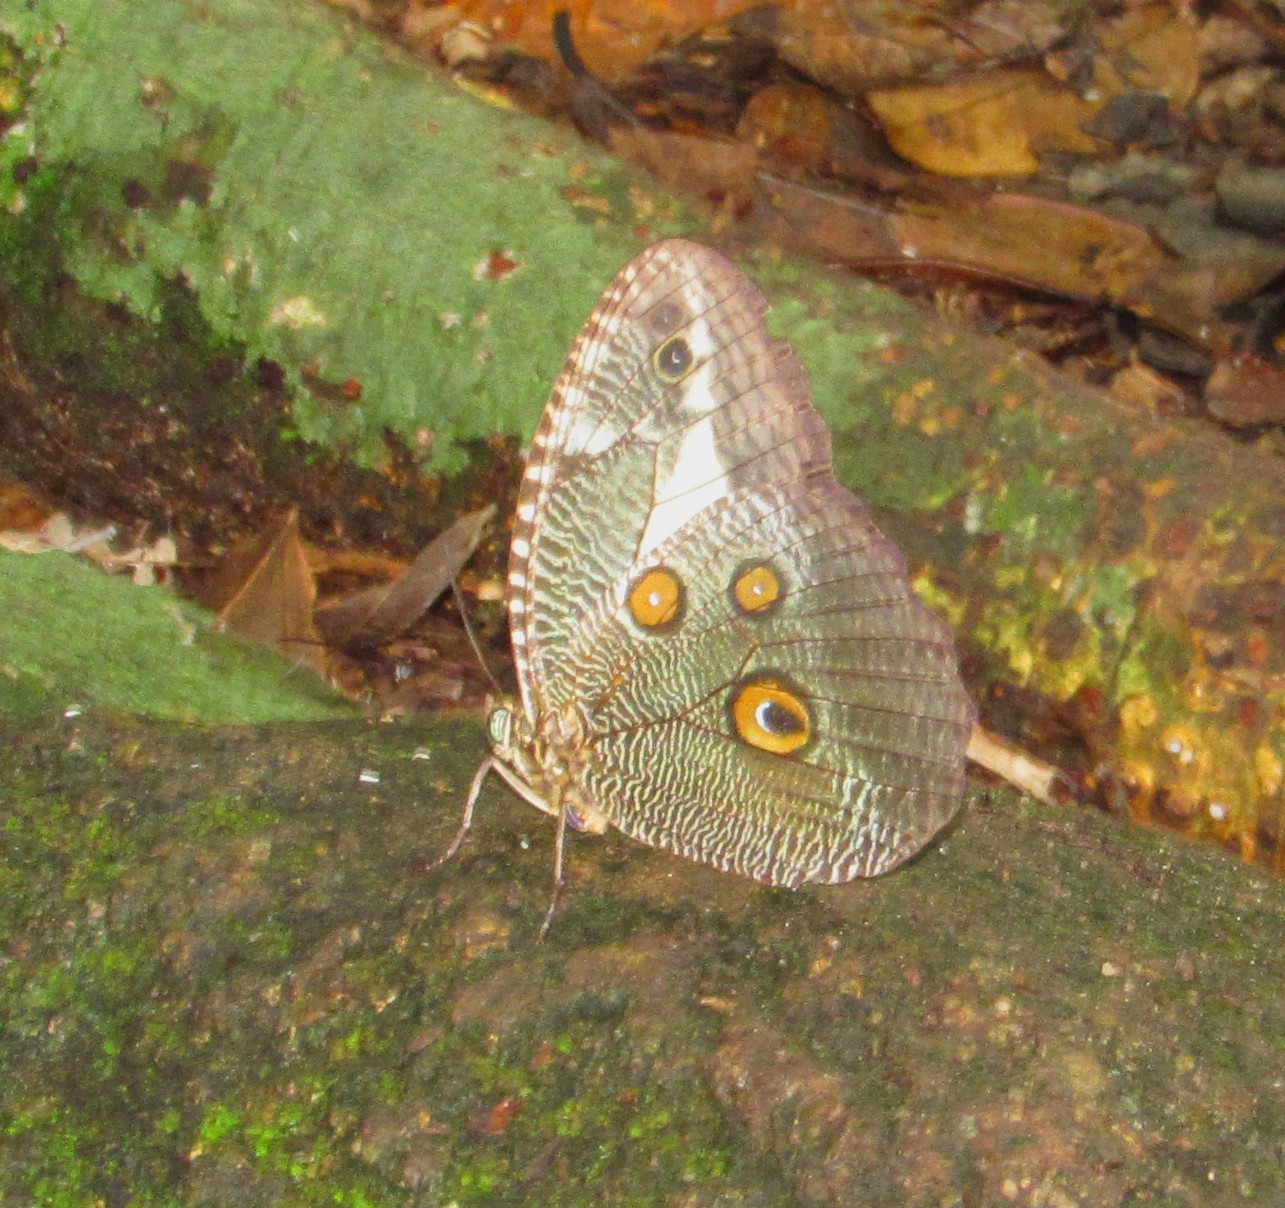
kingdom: Animalia
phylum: Arthropoda
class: Insecta
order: Lepidoptera
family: Nymphalidae
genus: Dasyophthalma
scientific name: Dasyophthalma creusa
